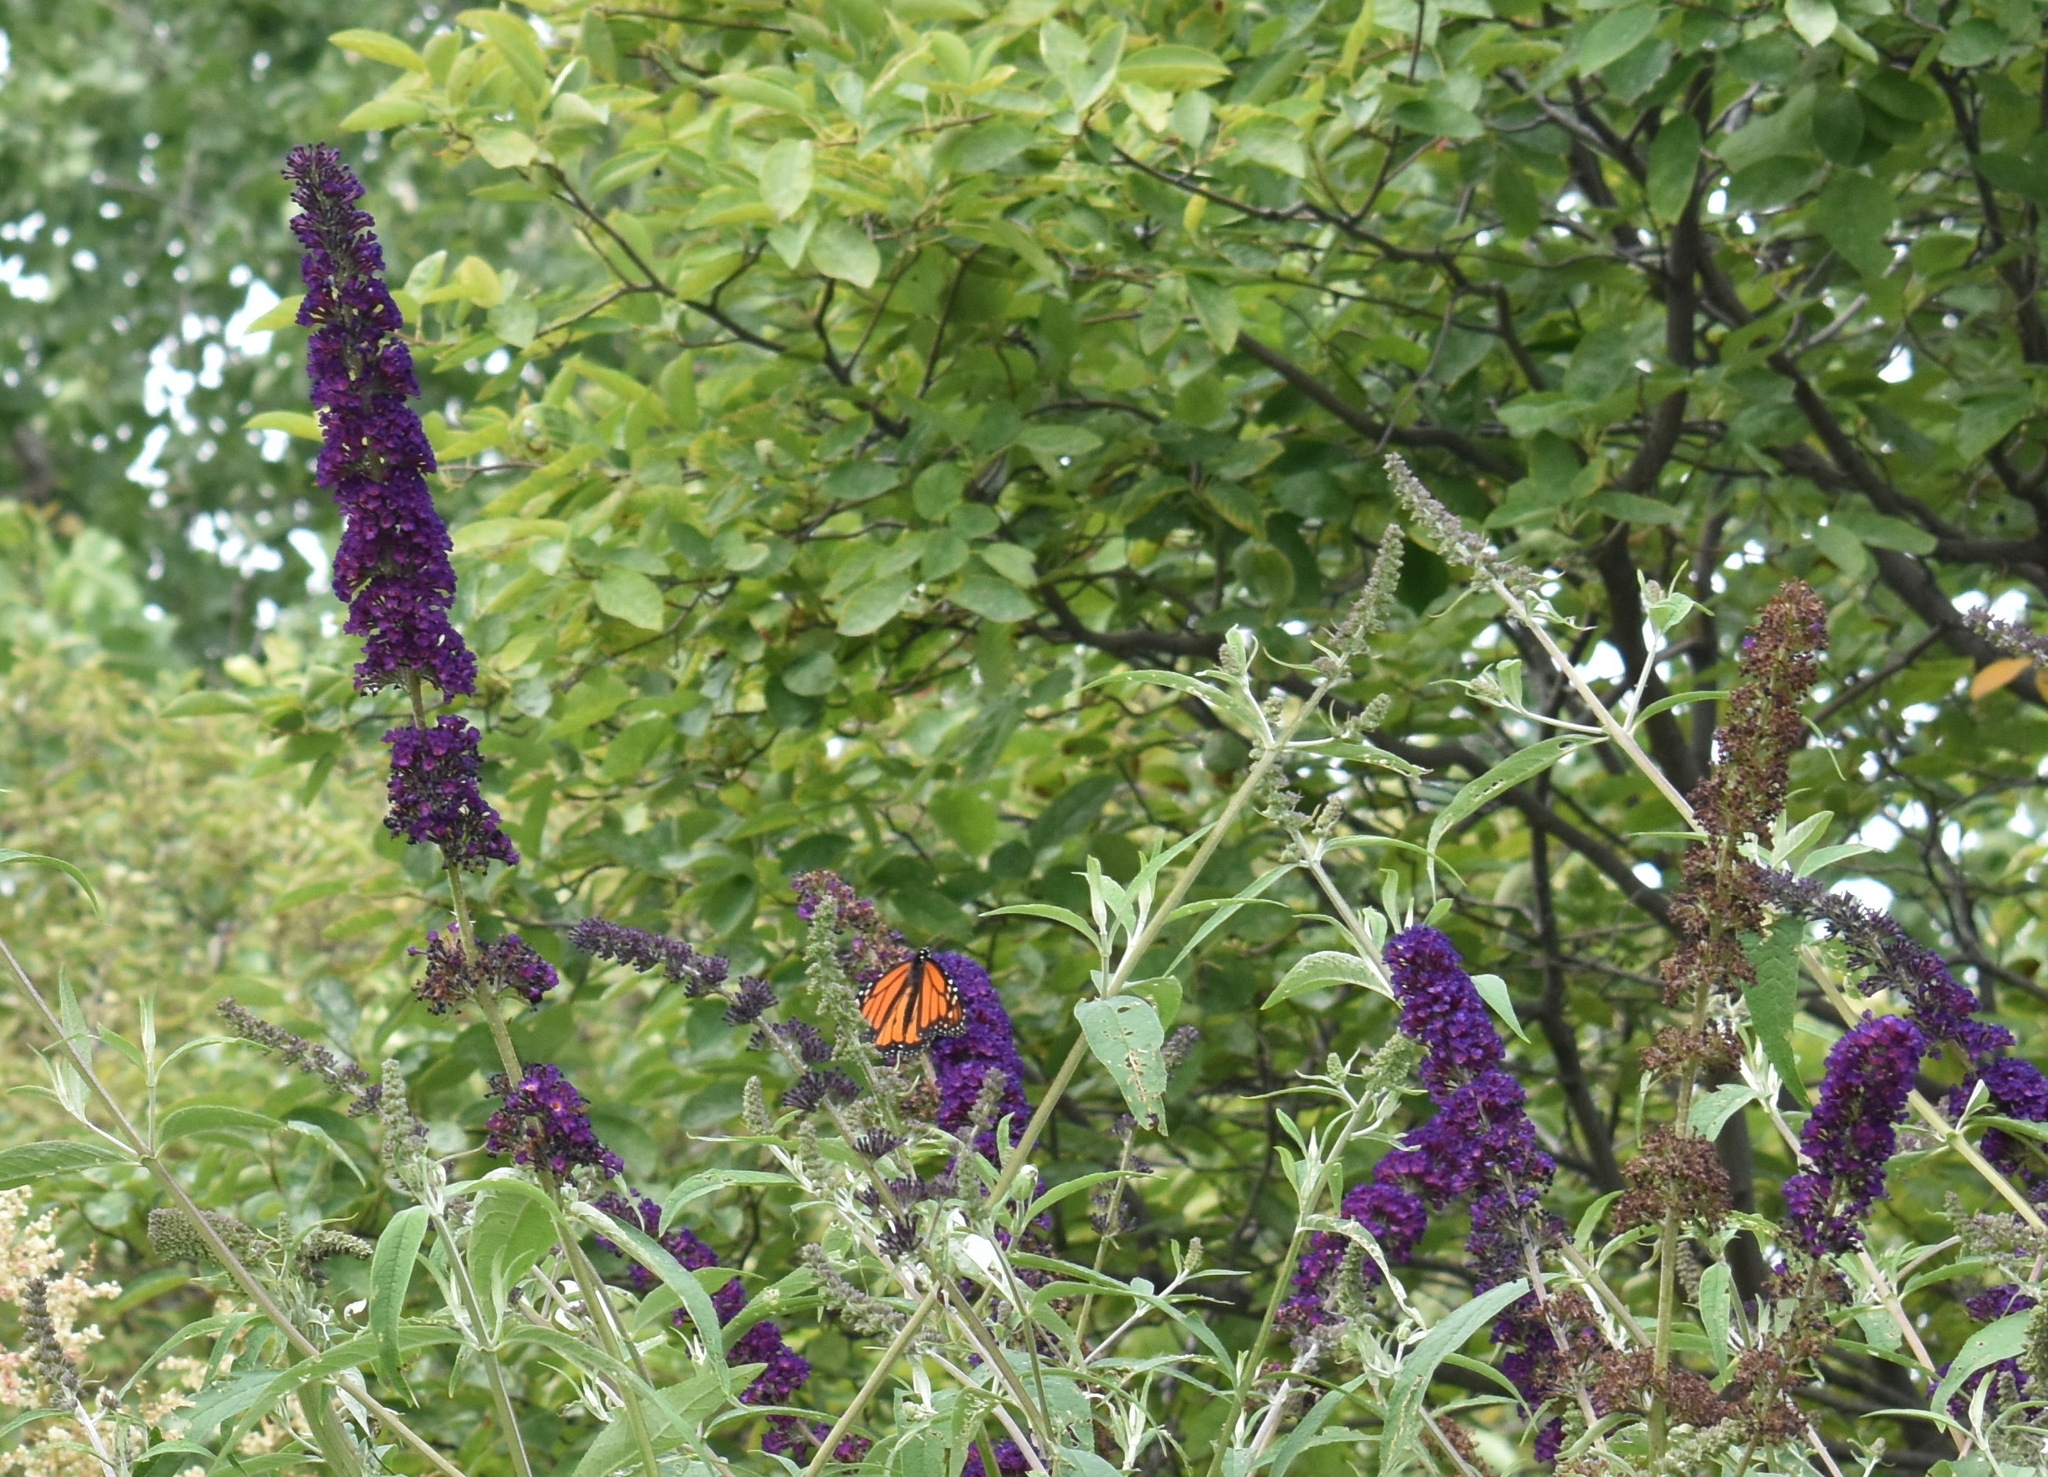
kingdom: Animalia
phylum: Arthropoda
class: Insecta
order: Lepidoptera
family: Nymphalidae
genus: Danaus
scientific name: Danaus plexippus
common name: Monarch
